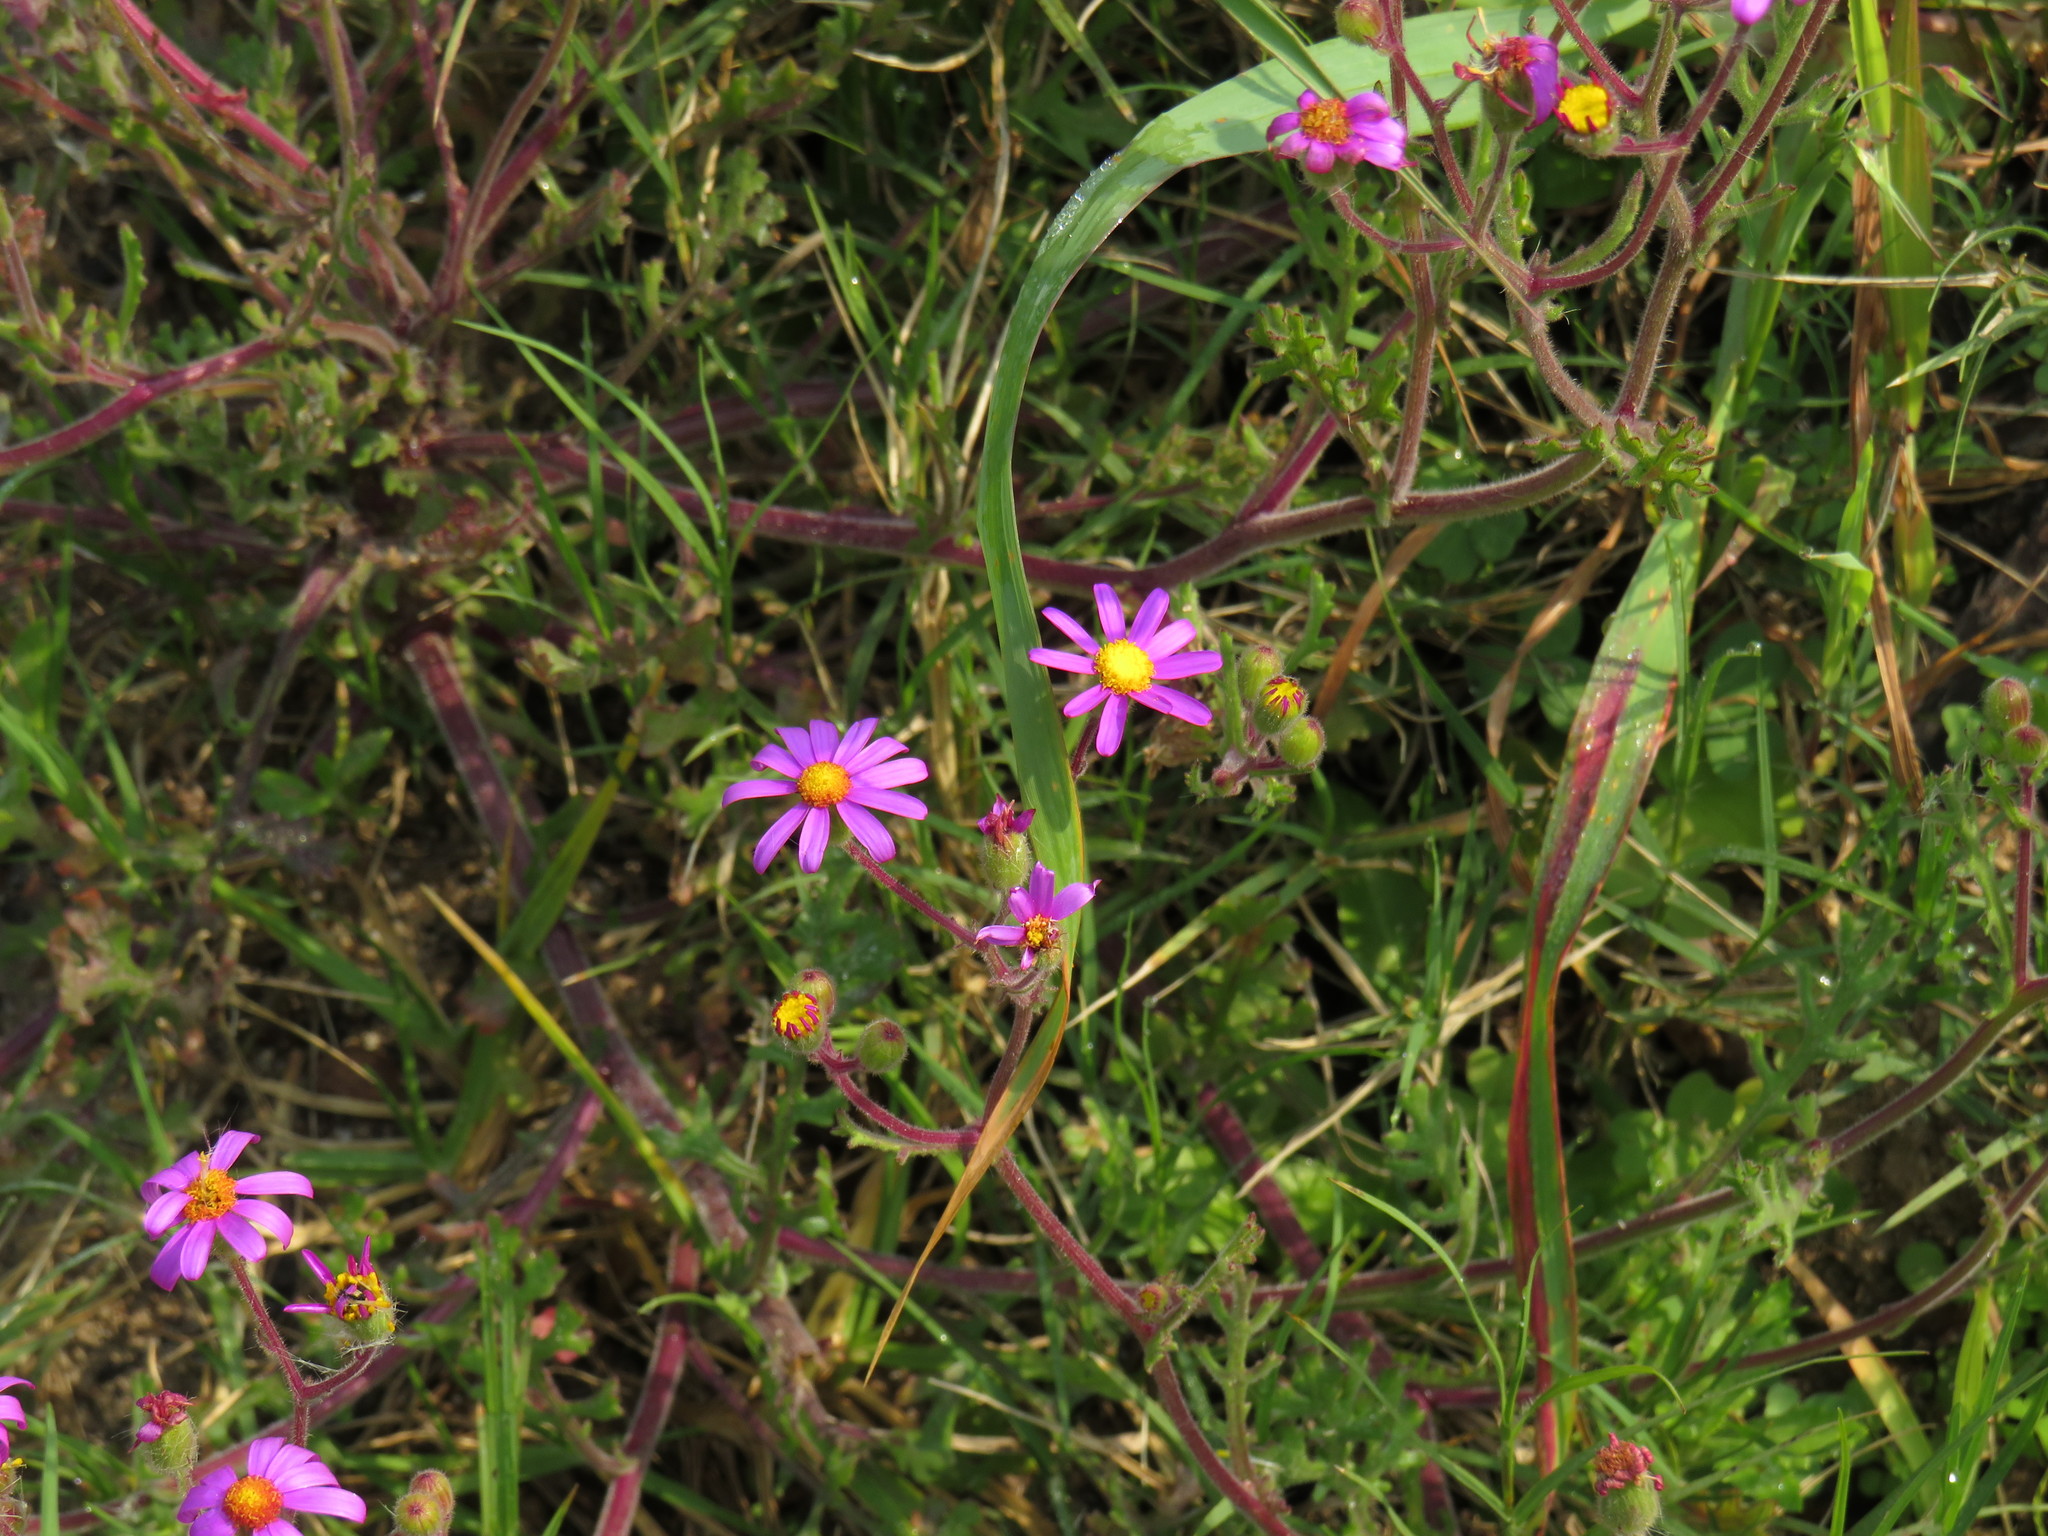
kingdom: Plantae
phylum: Tracheophyta
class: Magnoliopsida
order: Asterales
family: Asteraceae
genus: Senecio
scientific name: Senecio arenarius
